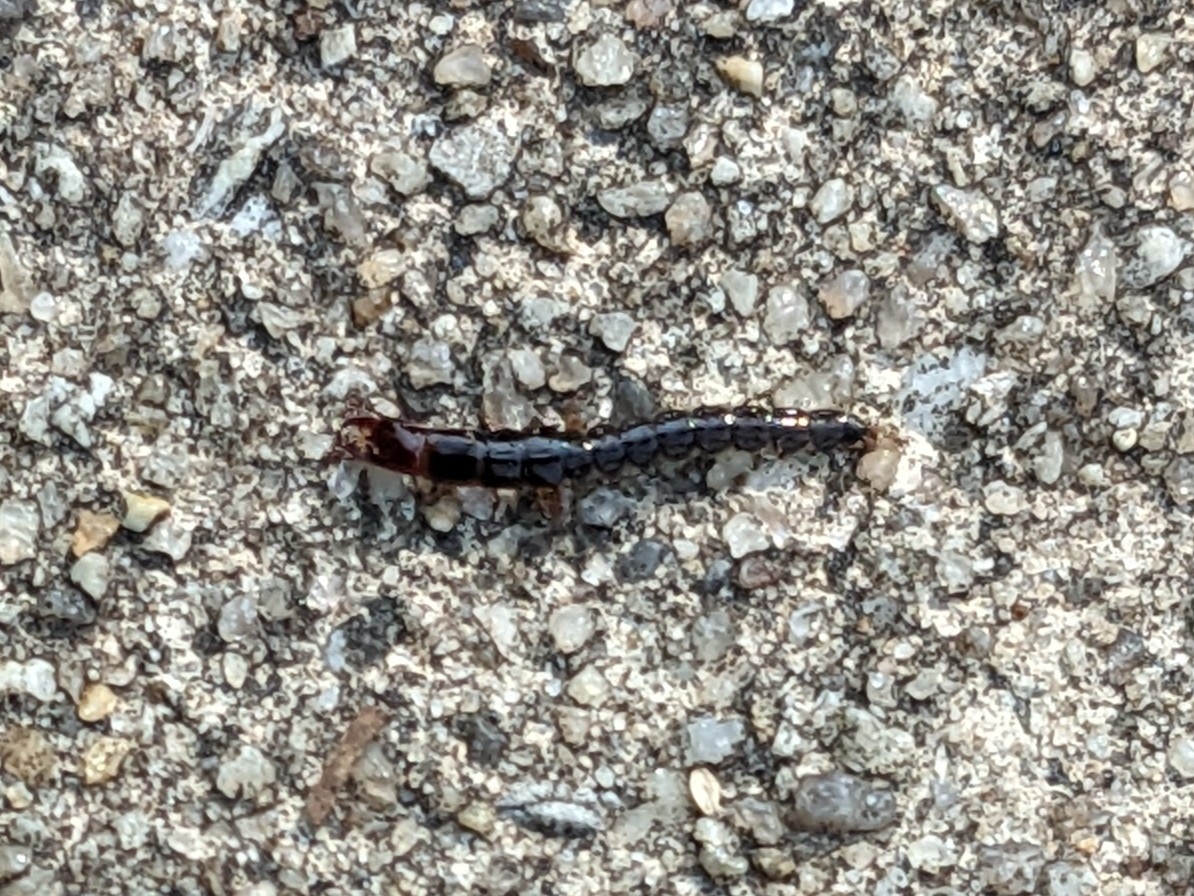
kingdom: Animalia
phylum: Arthropoda
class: Insecta
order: Coleoptera
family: Carabidae
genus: Scarites
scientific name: Scarites
